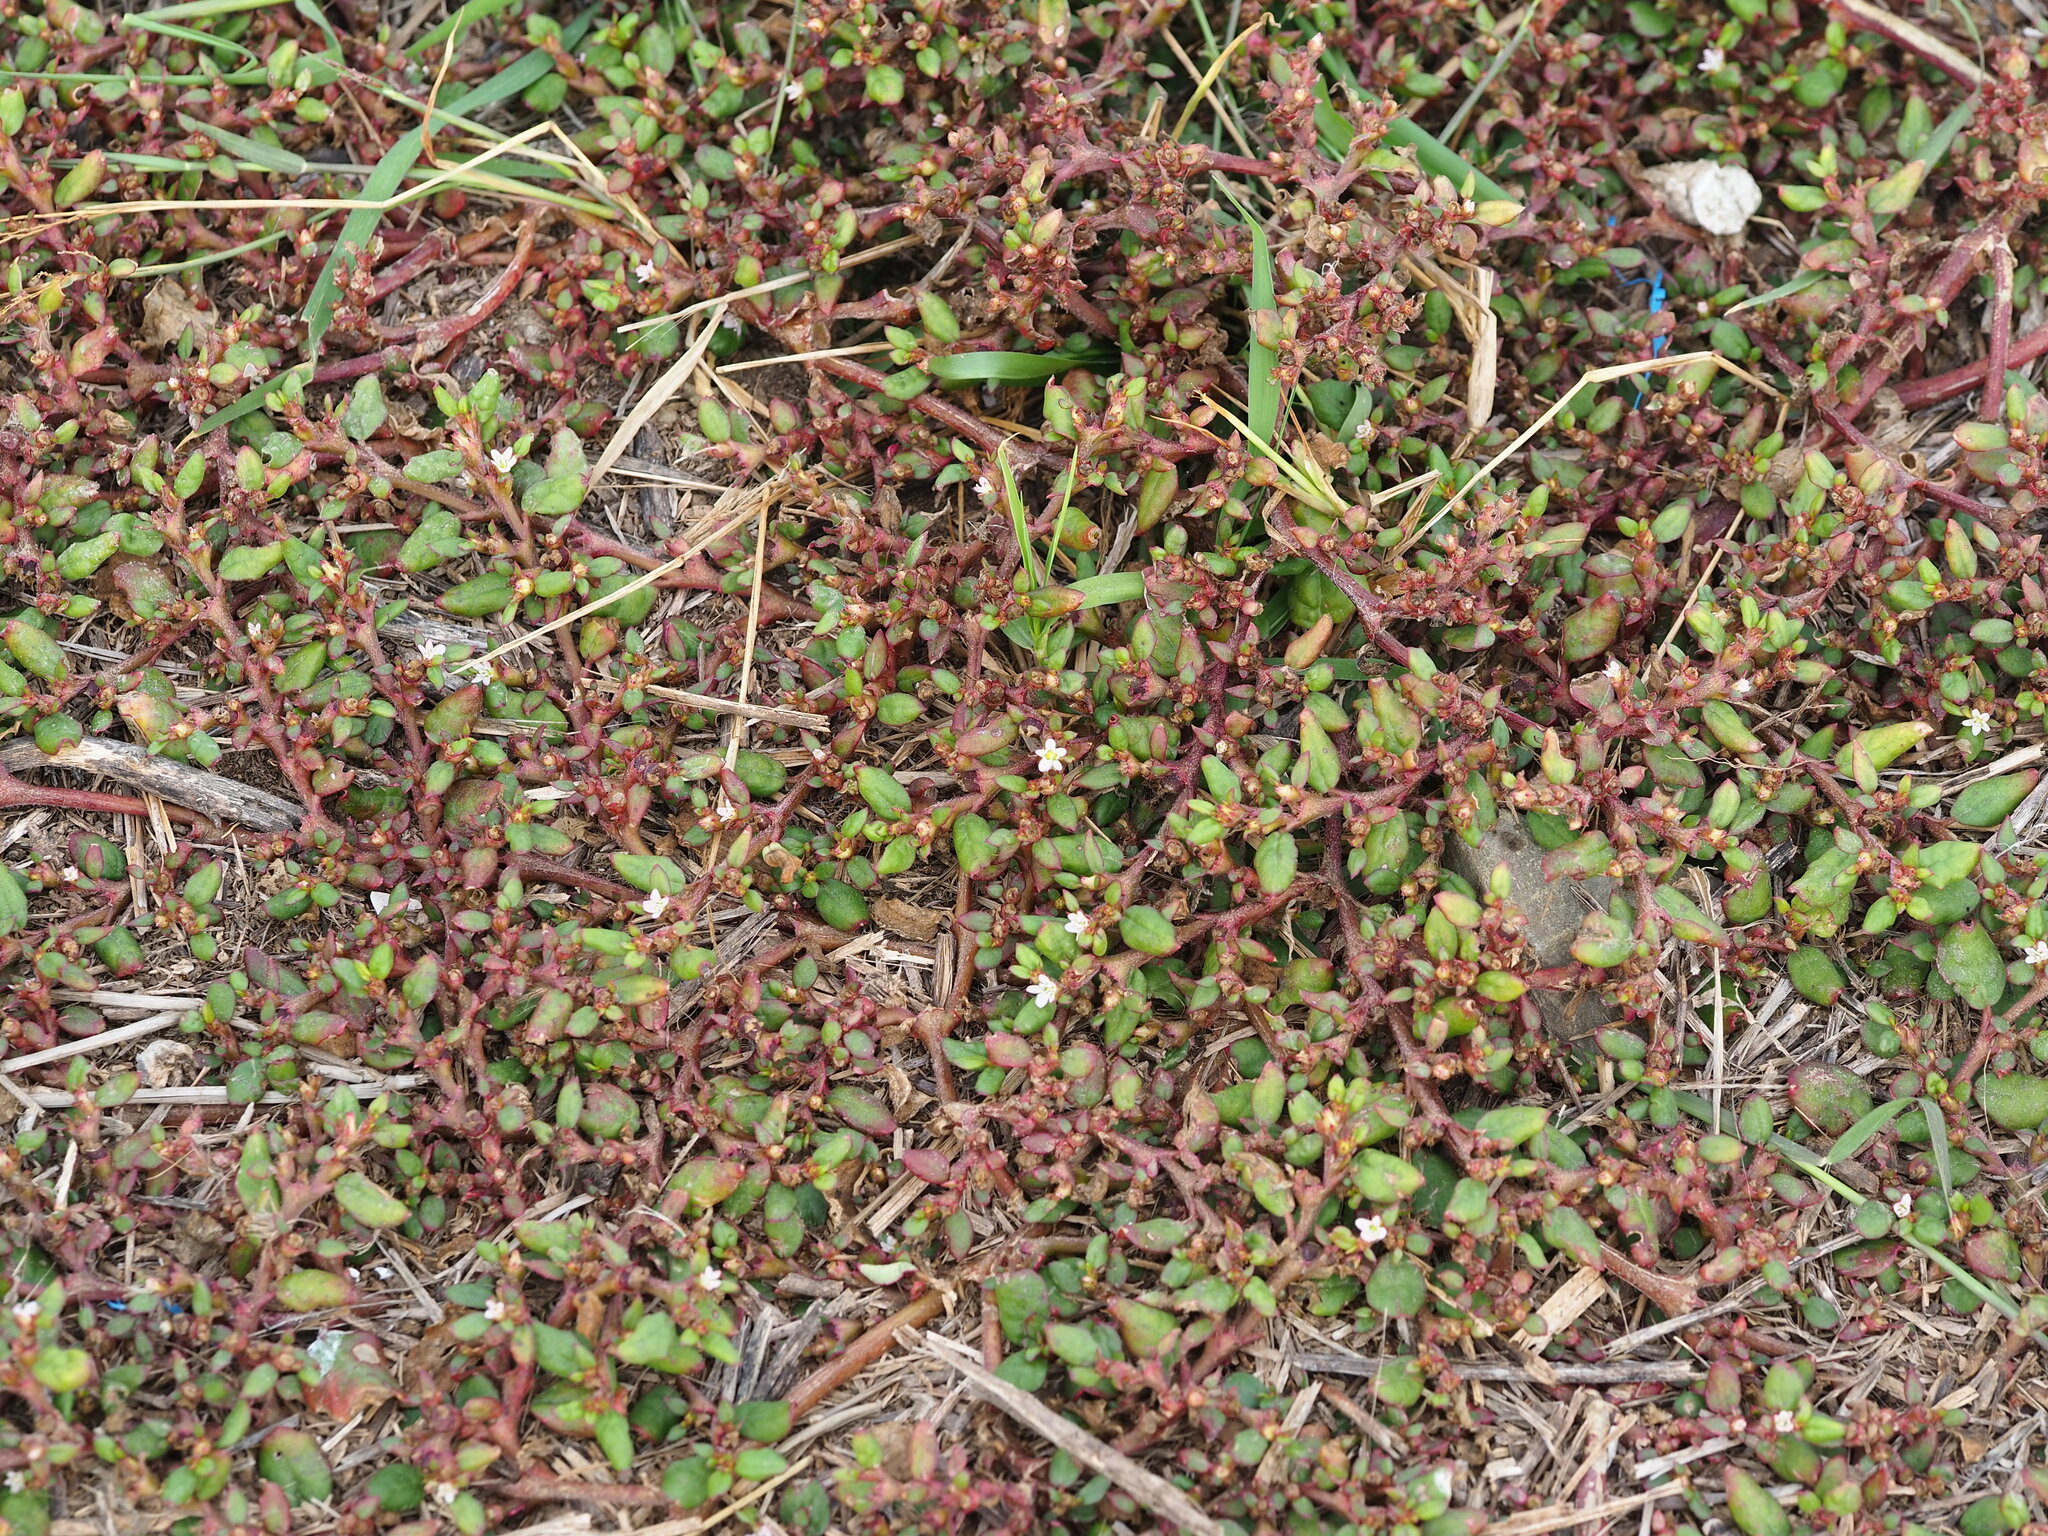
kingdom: Plantae
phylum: Tracheophyta
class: Magnoliopsida
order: Caryophyllales
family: Aizoaceae
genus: Trianthema
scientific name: Trianthema portulacastrum
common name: Desert horsepurslane
